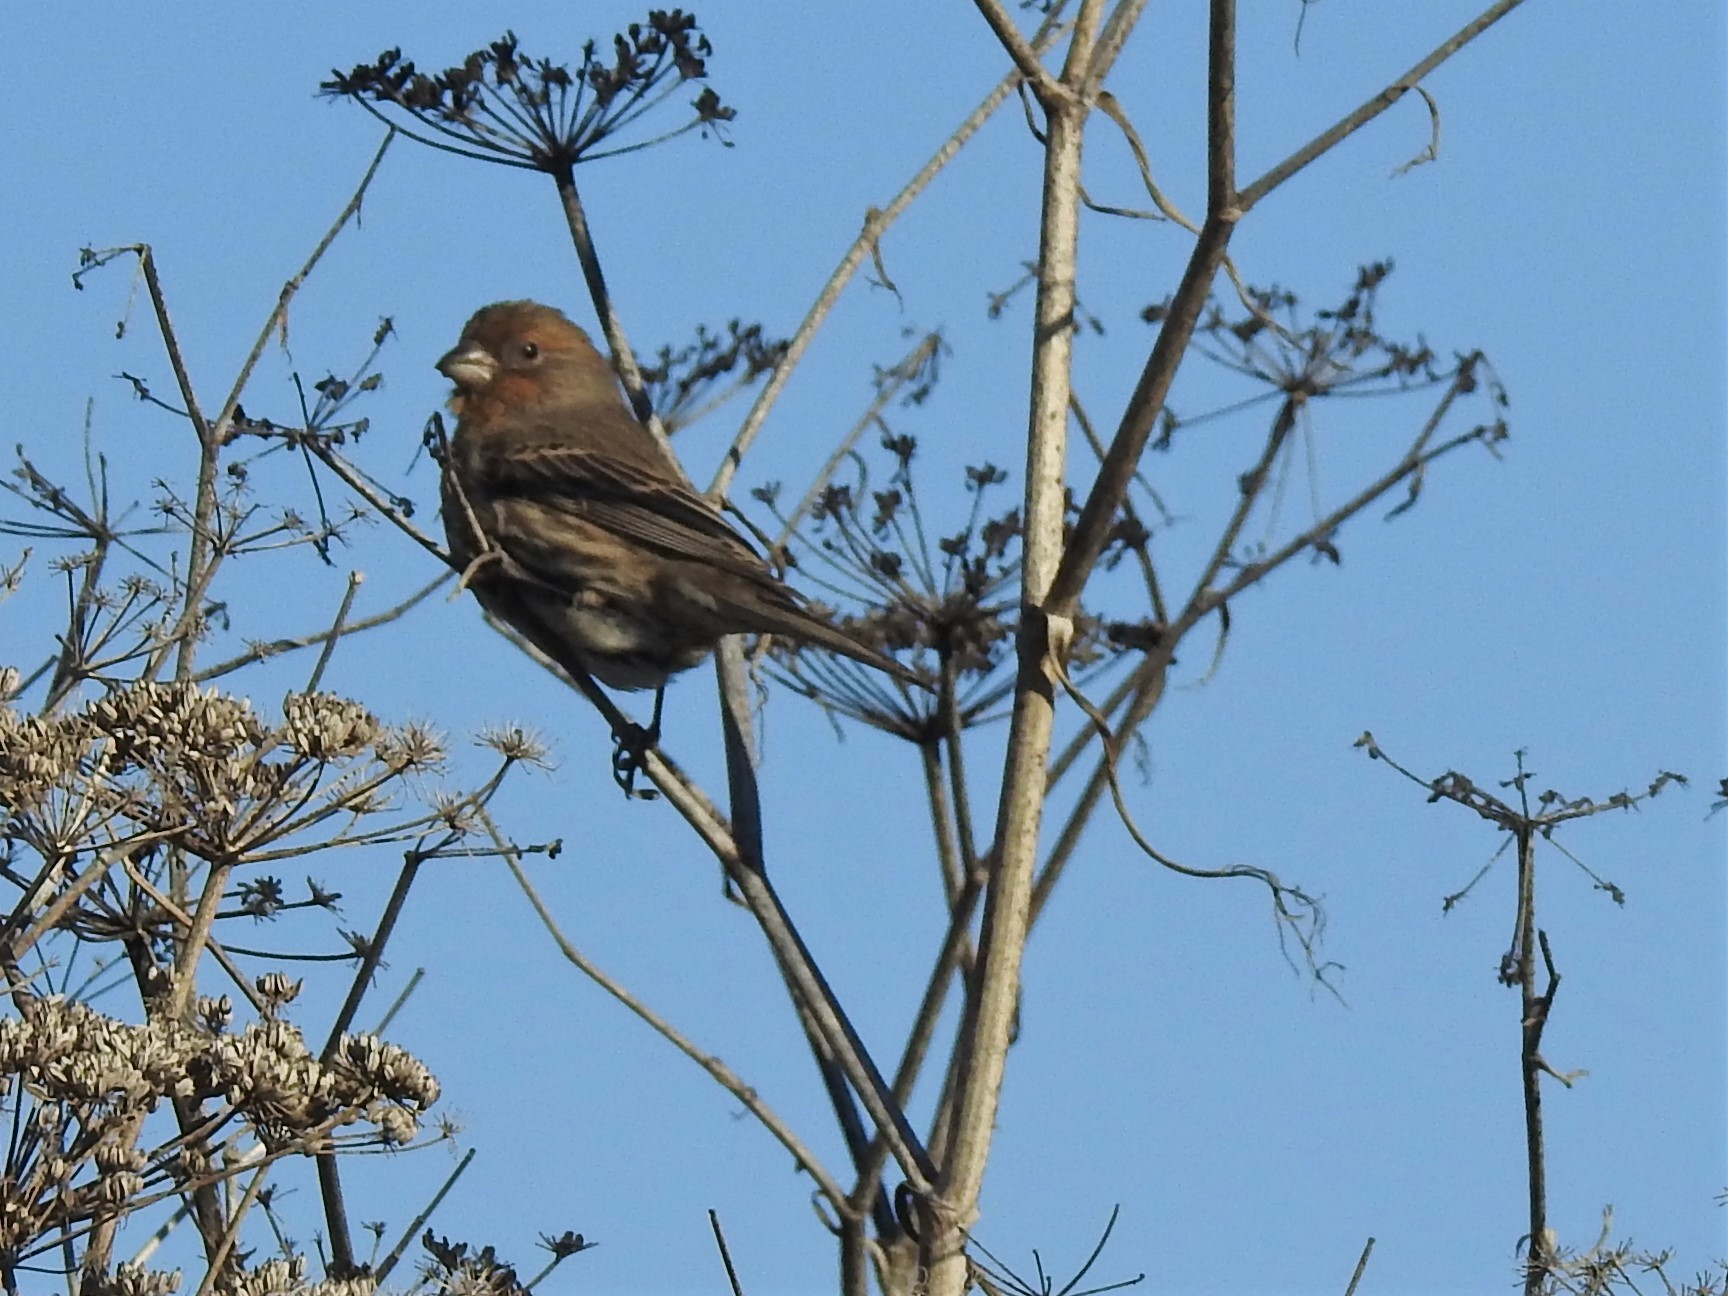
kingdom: Animalia
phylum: Chordata
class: Aves
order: Passeriformes
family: Fringillidae
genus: Haemorhous
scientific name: Haemorhous mexicanus
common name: House finch
